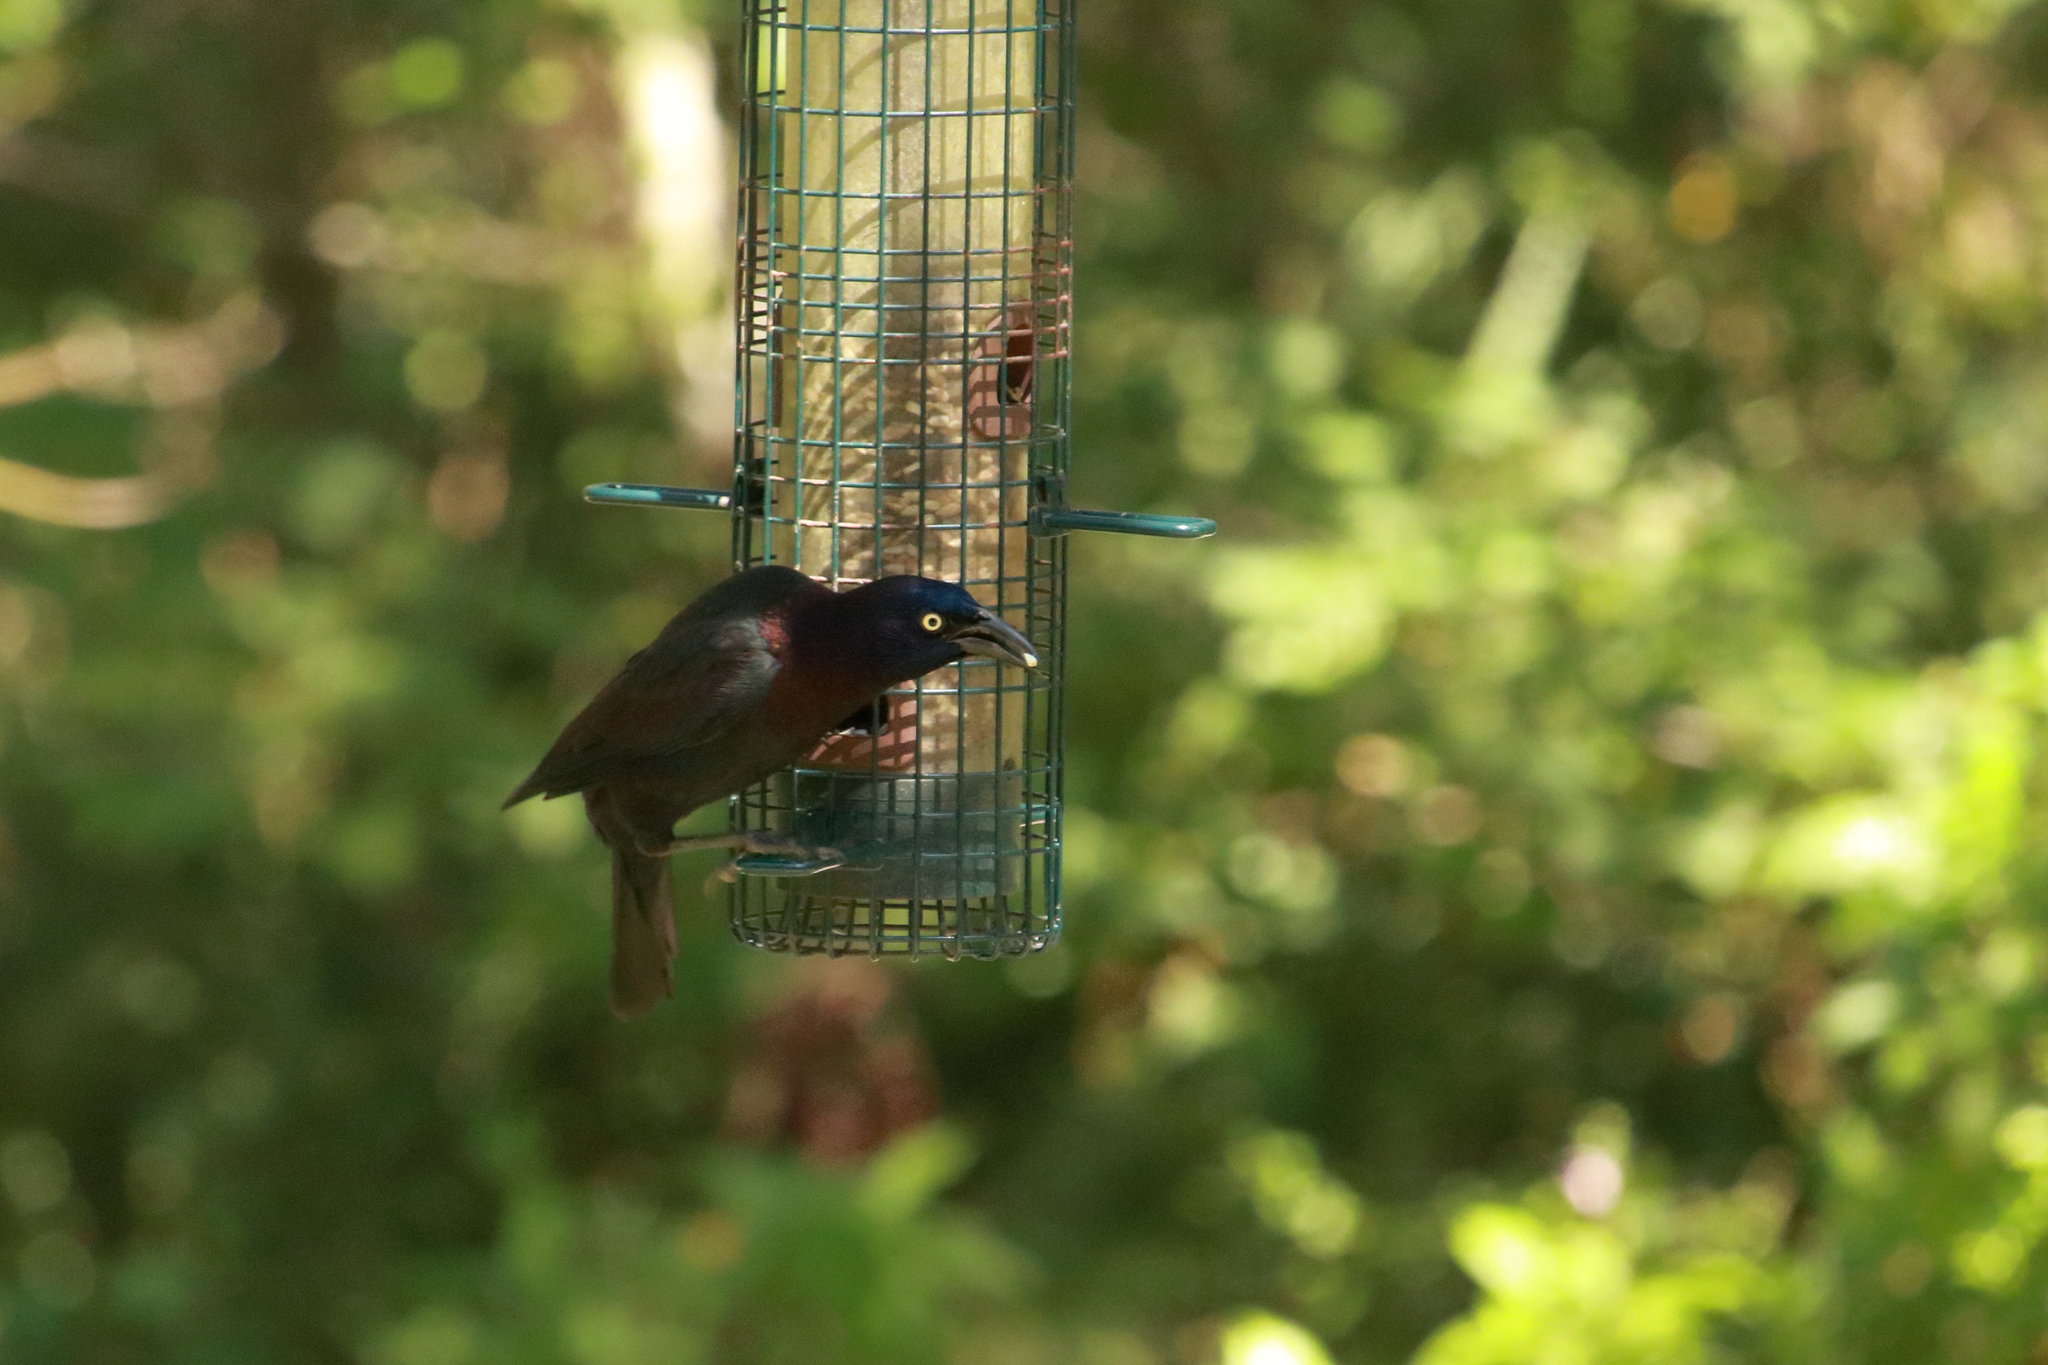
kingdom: Animalia
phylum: Chordata
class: Aves
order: Passeriformes
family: Icteridae
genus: Quiscalus
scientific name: Quiscalus quiscula
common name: Common grackle
